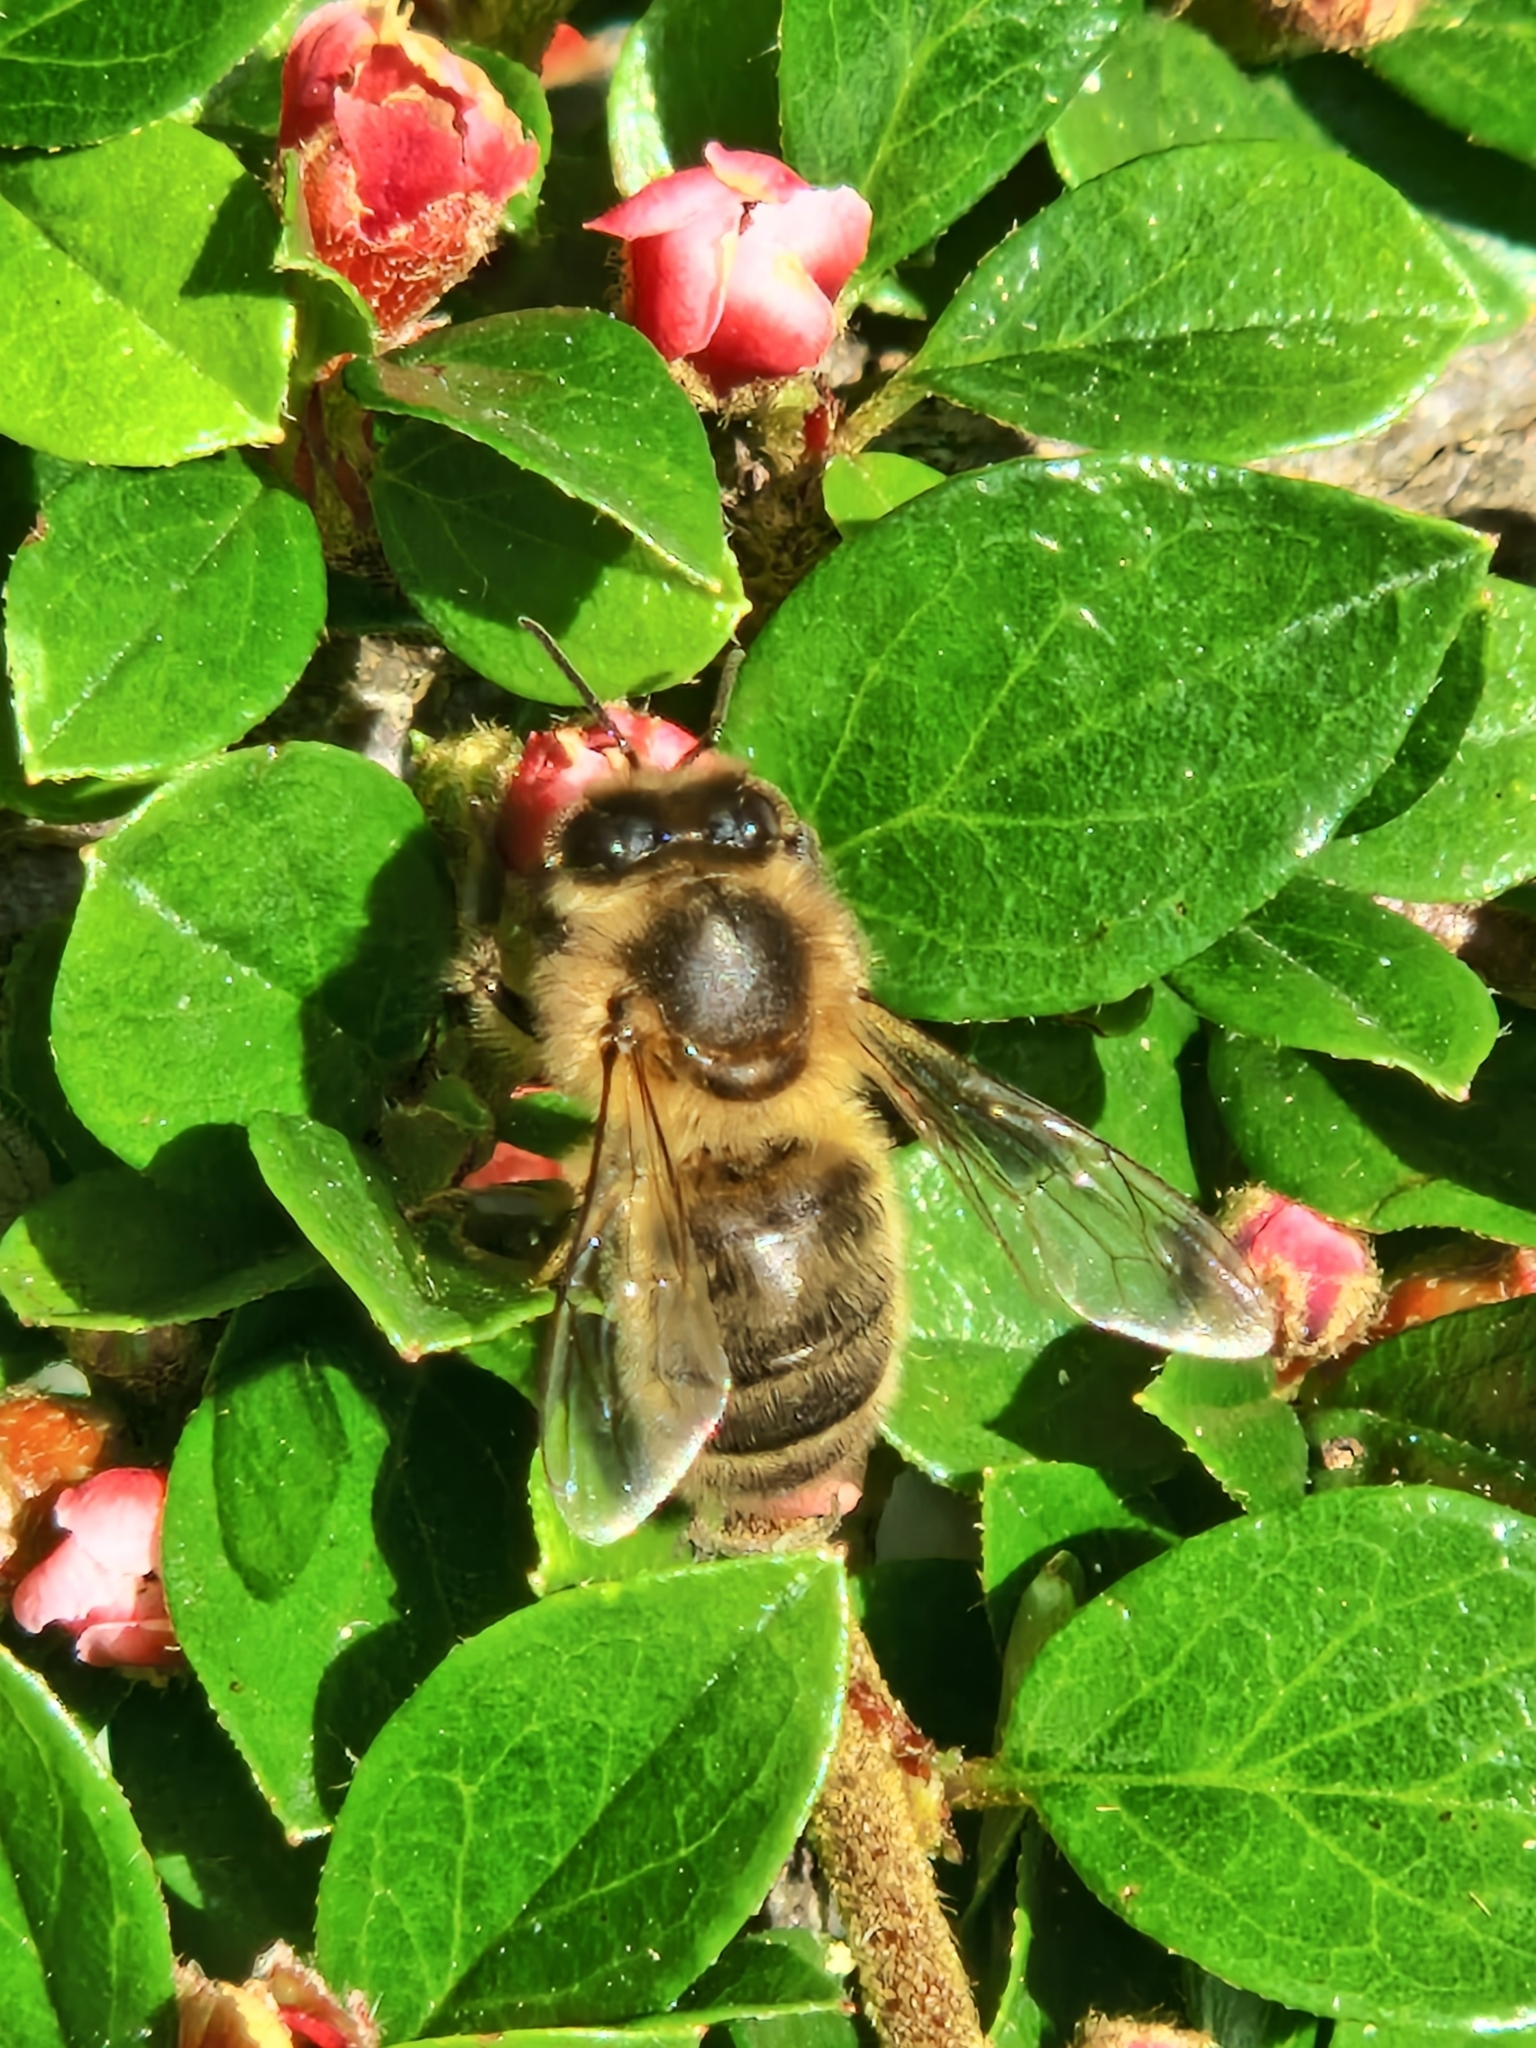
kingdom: Animalia
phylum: Arthropoda
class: Insecta
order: Hymenoptera
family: Apidae
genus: Apis
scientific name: Apis mellifera
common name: Honey bee
